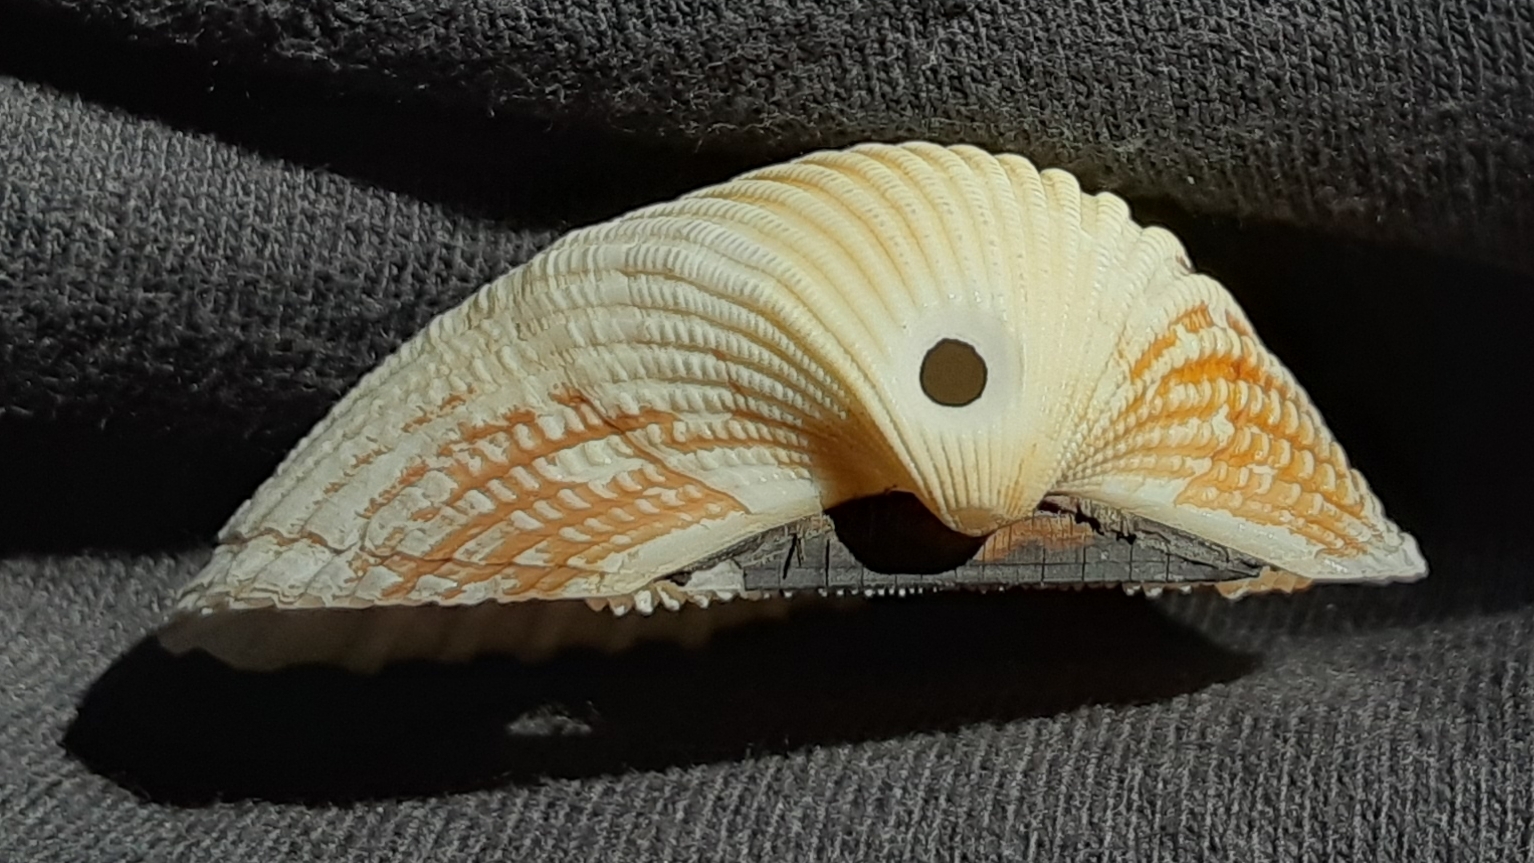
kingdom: Animalia
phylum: Mollusca
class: Bivalvia
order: Arcida
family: Arcidae
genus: Anadara
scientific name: Anadara brasiliana
